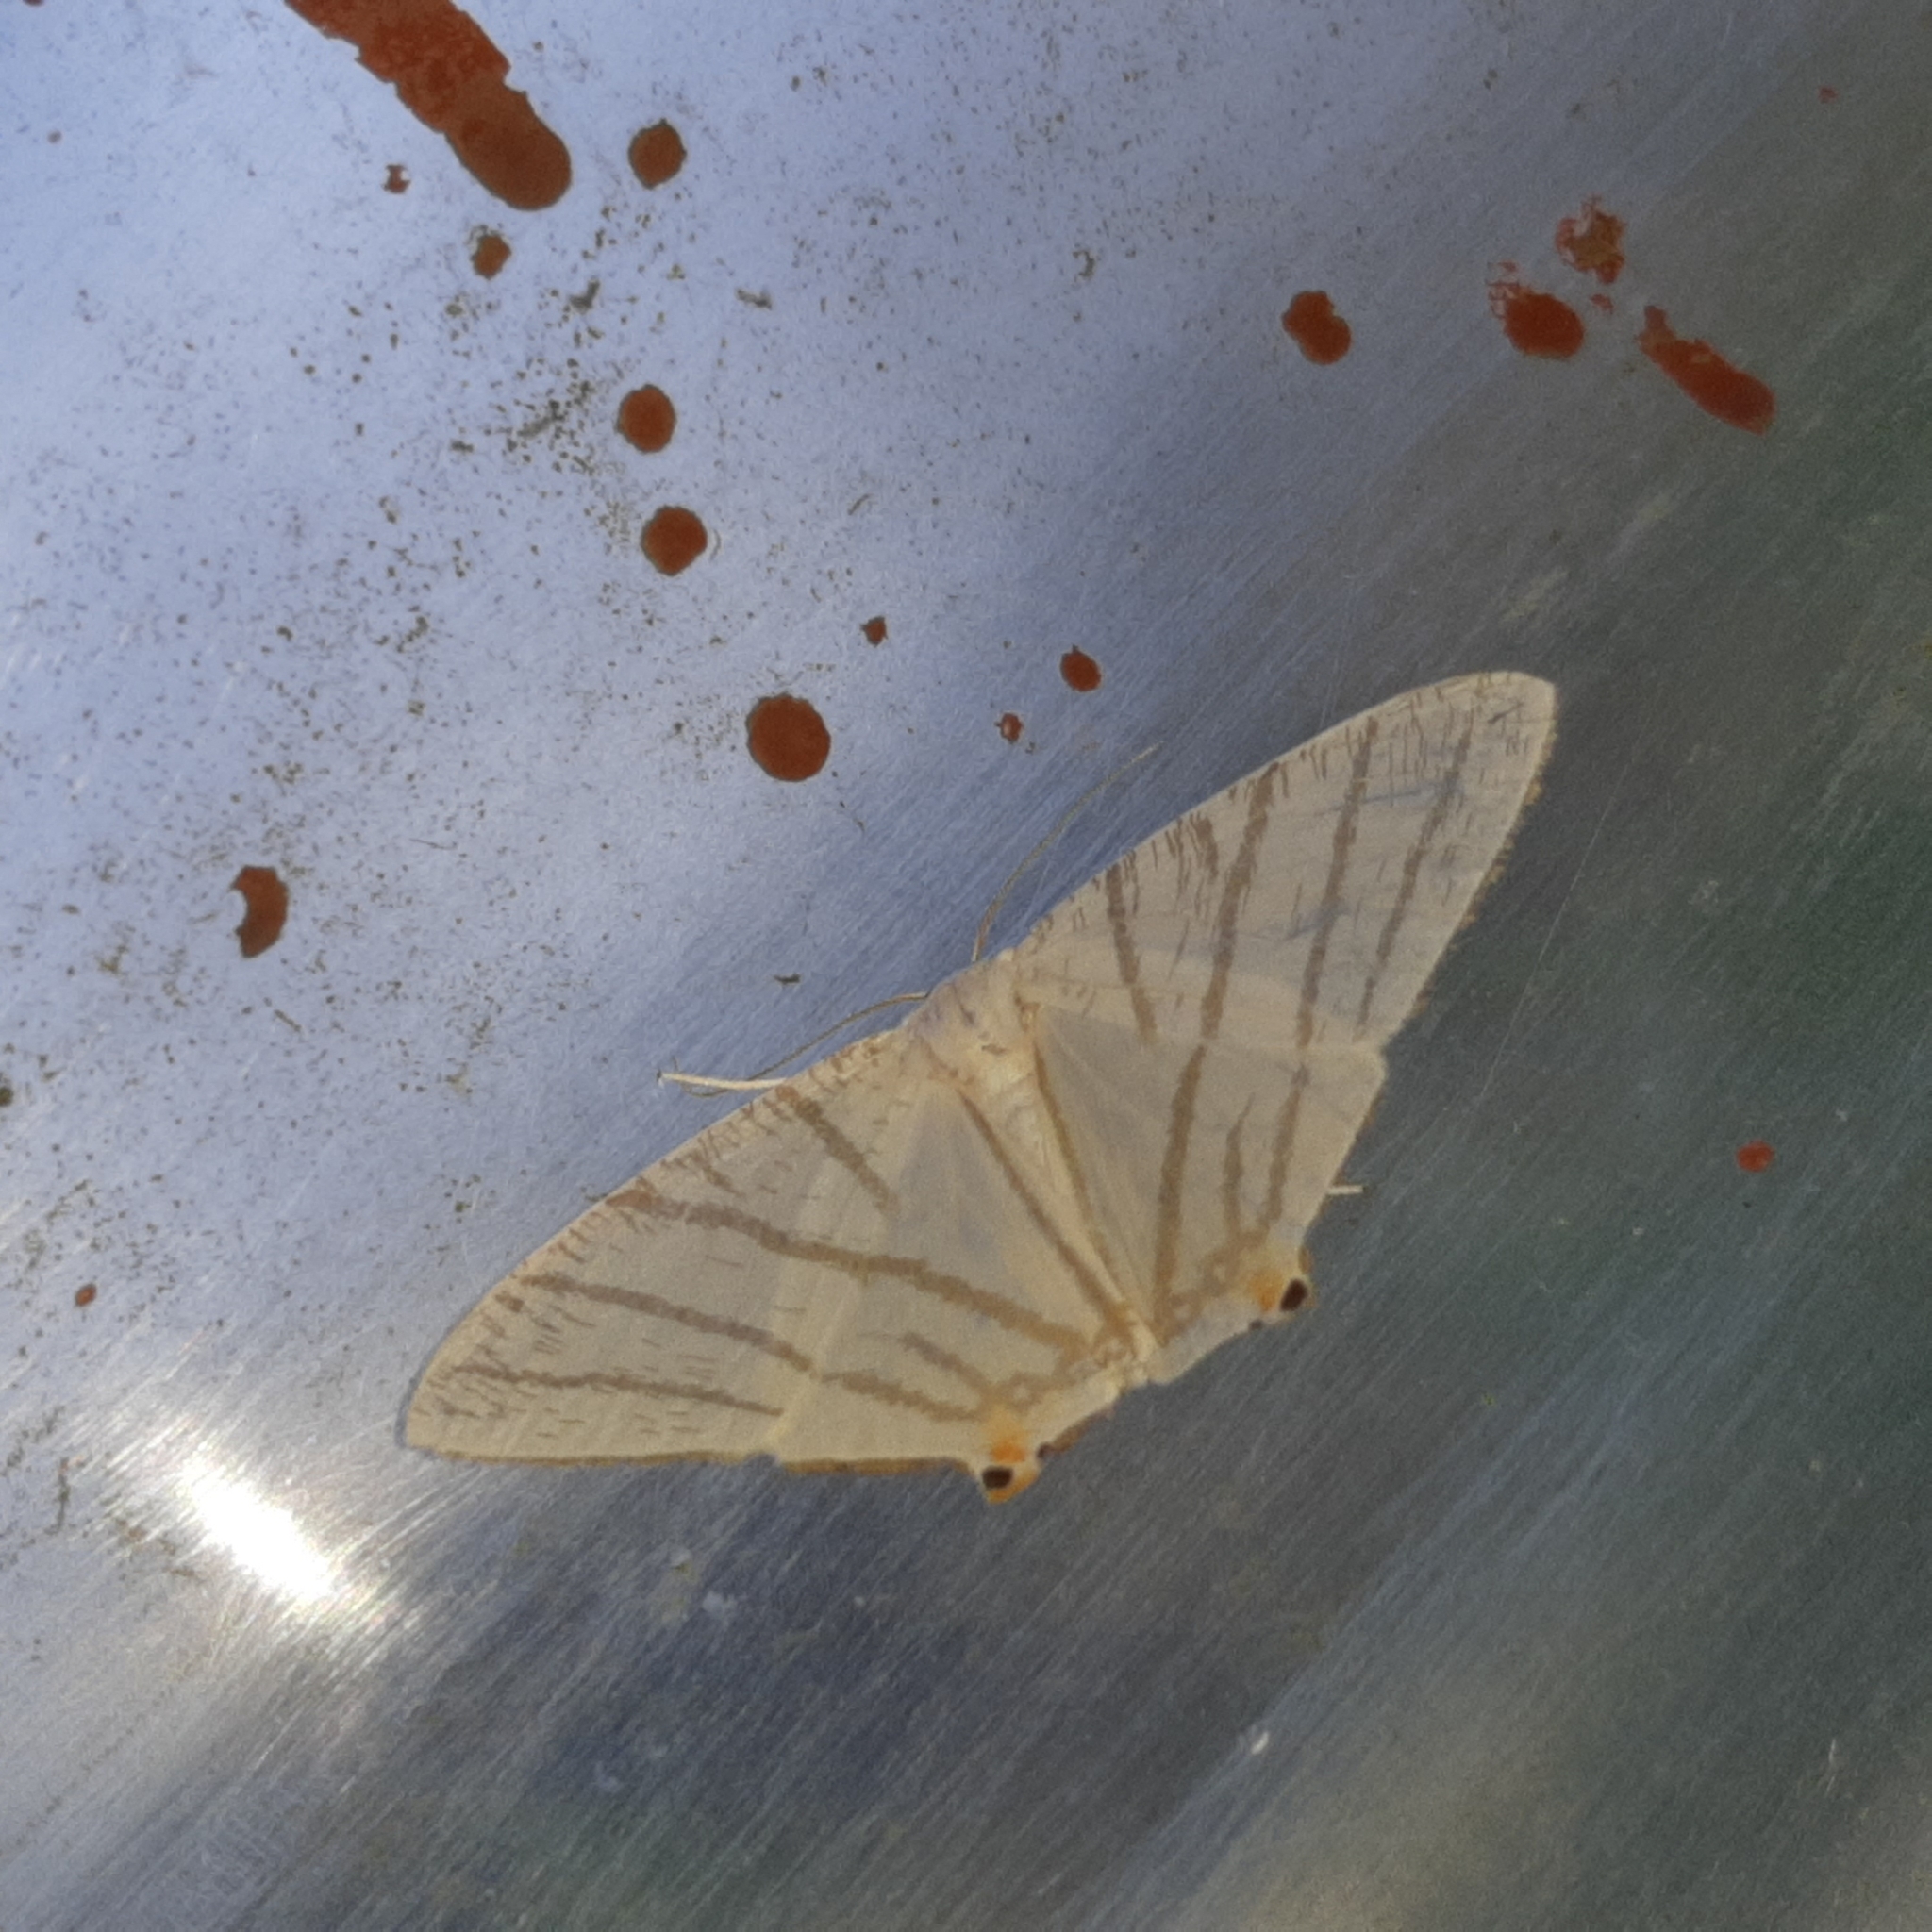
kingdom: Animalia
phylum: Arthropoda
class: Insecta
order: Lepidoptera
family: Geometridae
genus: Brachurapteryx
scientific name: Brachurapteryx tesserata
